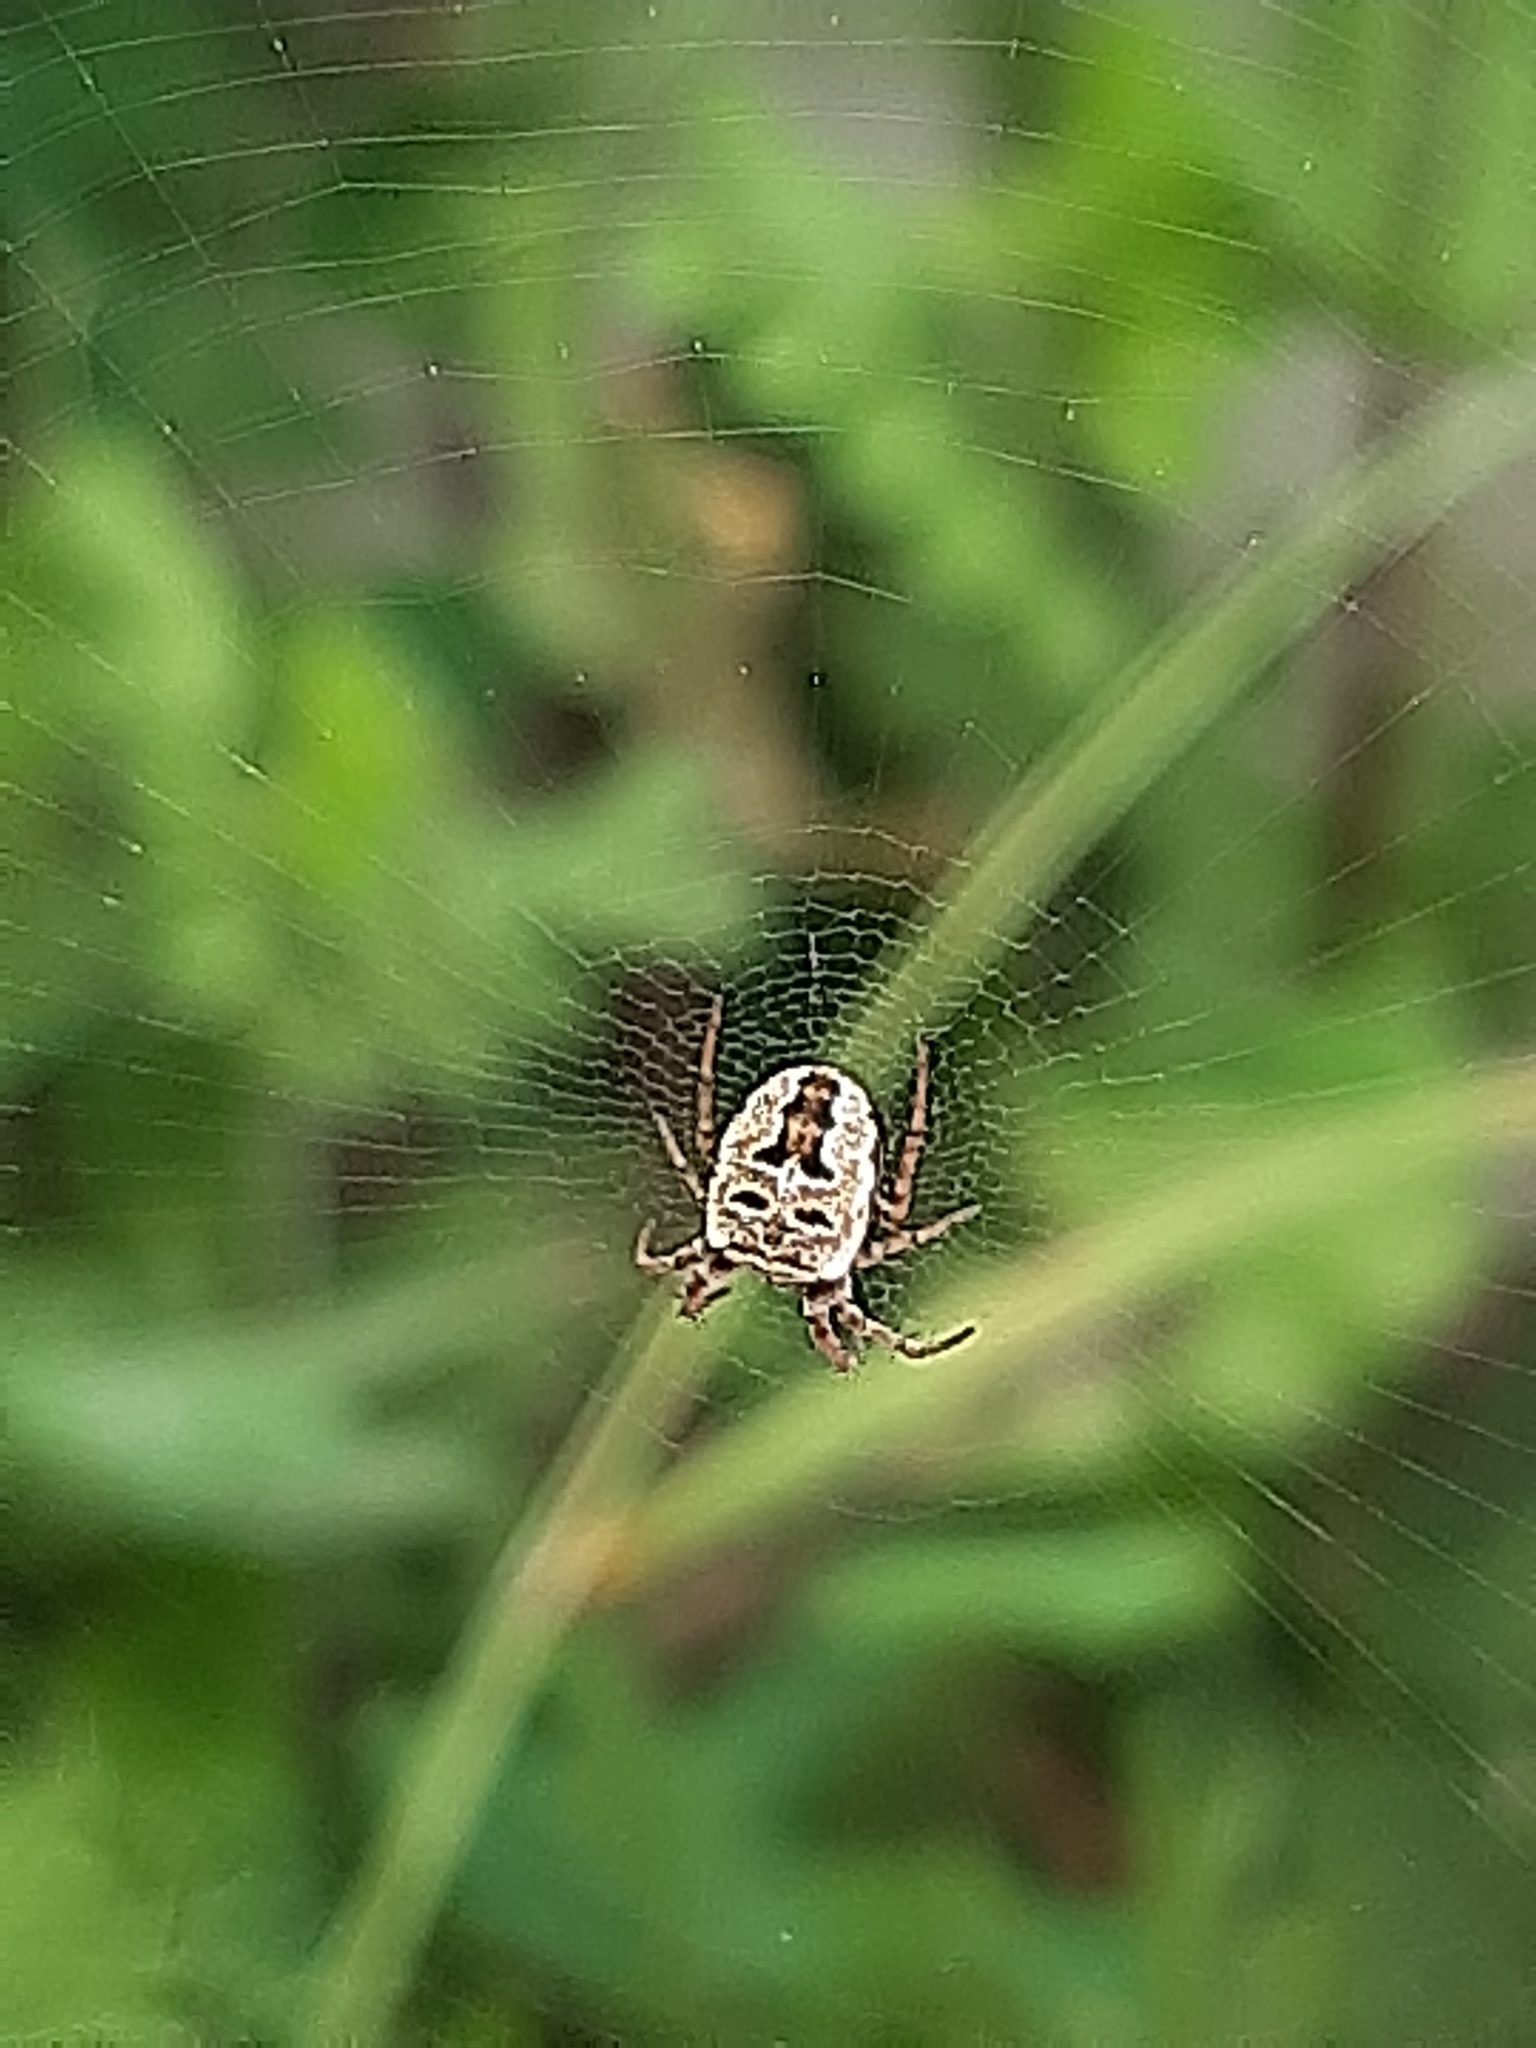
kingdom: Animalia
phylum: Arthropoda
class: Arachnida
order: Araneae
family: Araneidae
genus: Zilla
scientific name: Zilla diodia
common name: Zilla diodia
